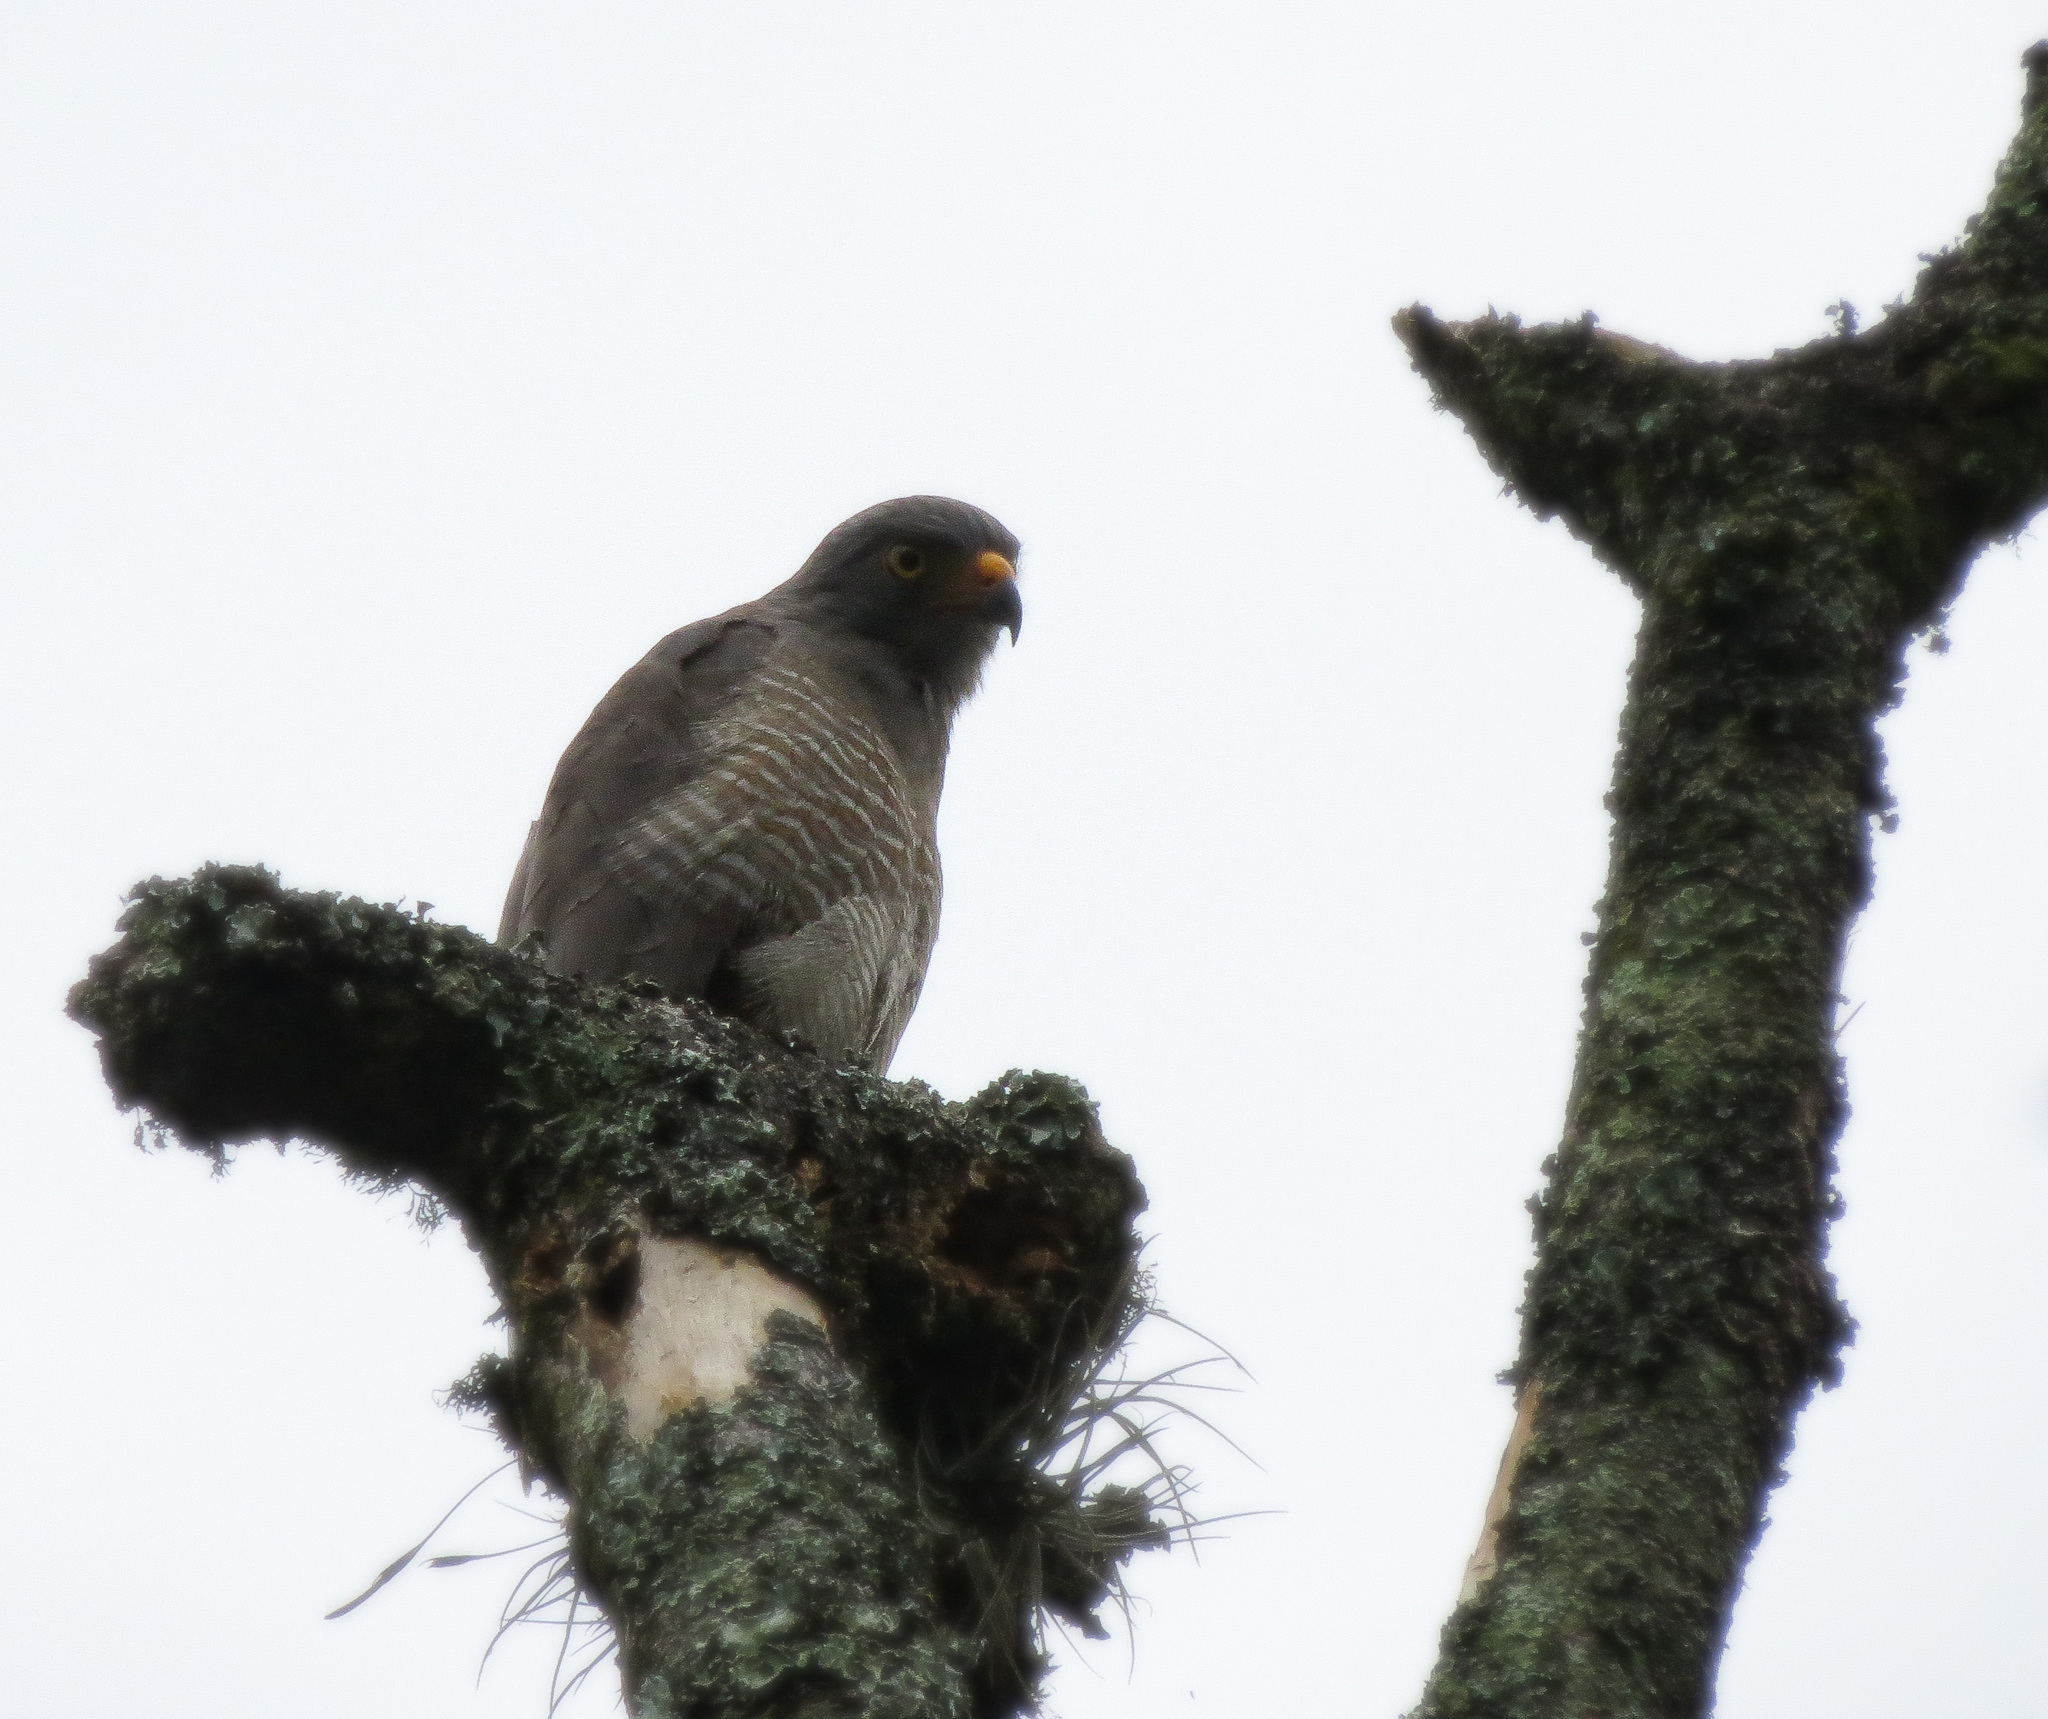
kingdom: Animalia
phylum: Chordata
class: Aves
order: Accipitriformes
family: Accipitridae
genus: Rupornis
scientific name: Rupornis magnirostris
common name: Roadside hawk
